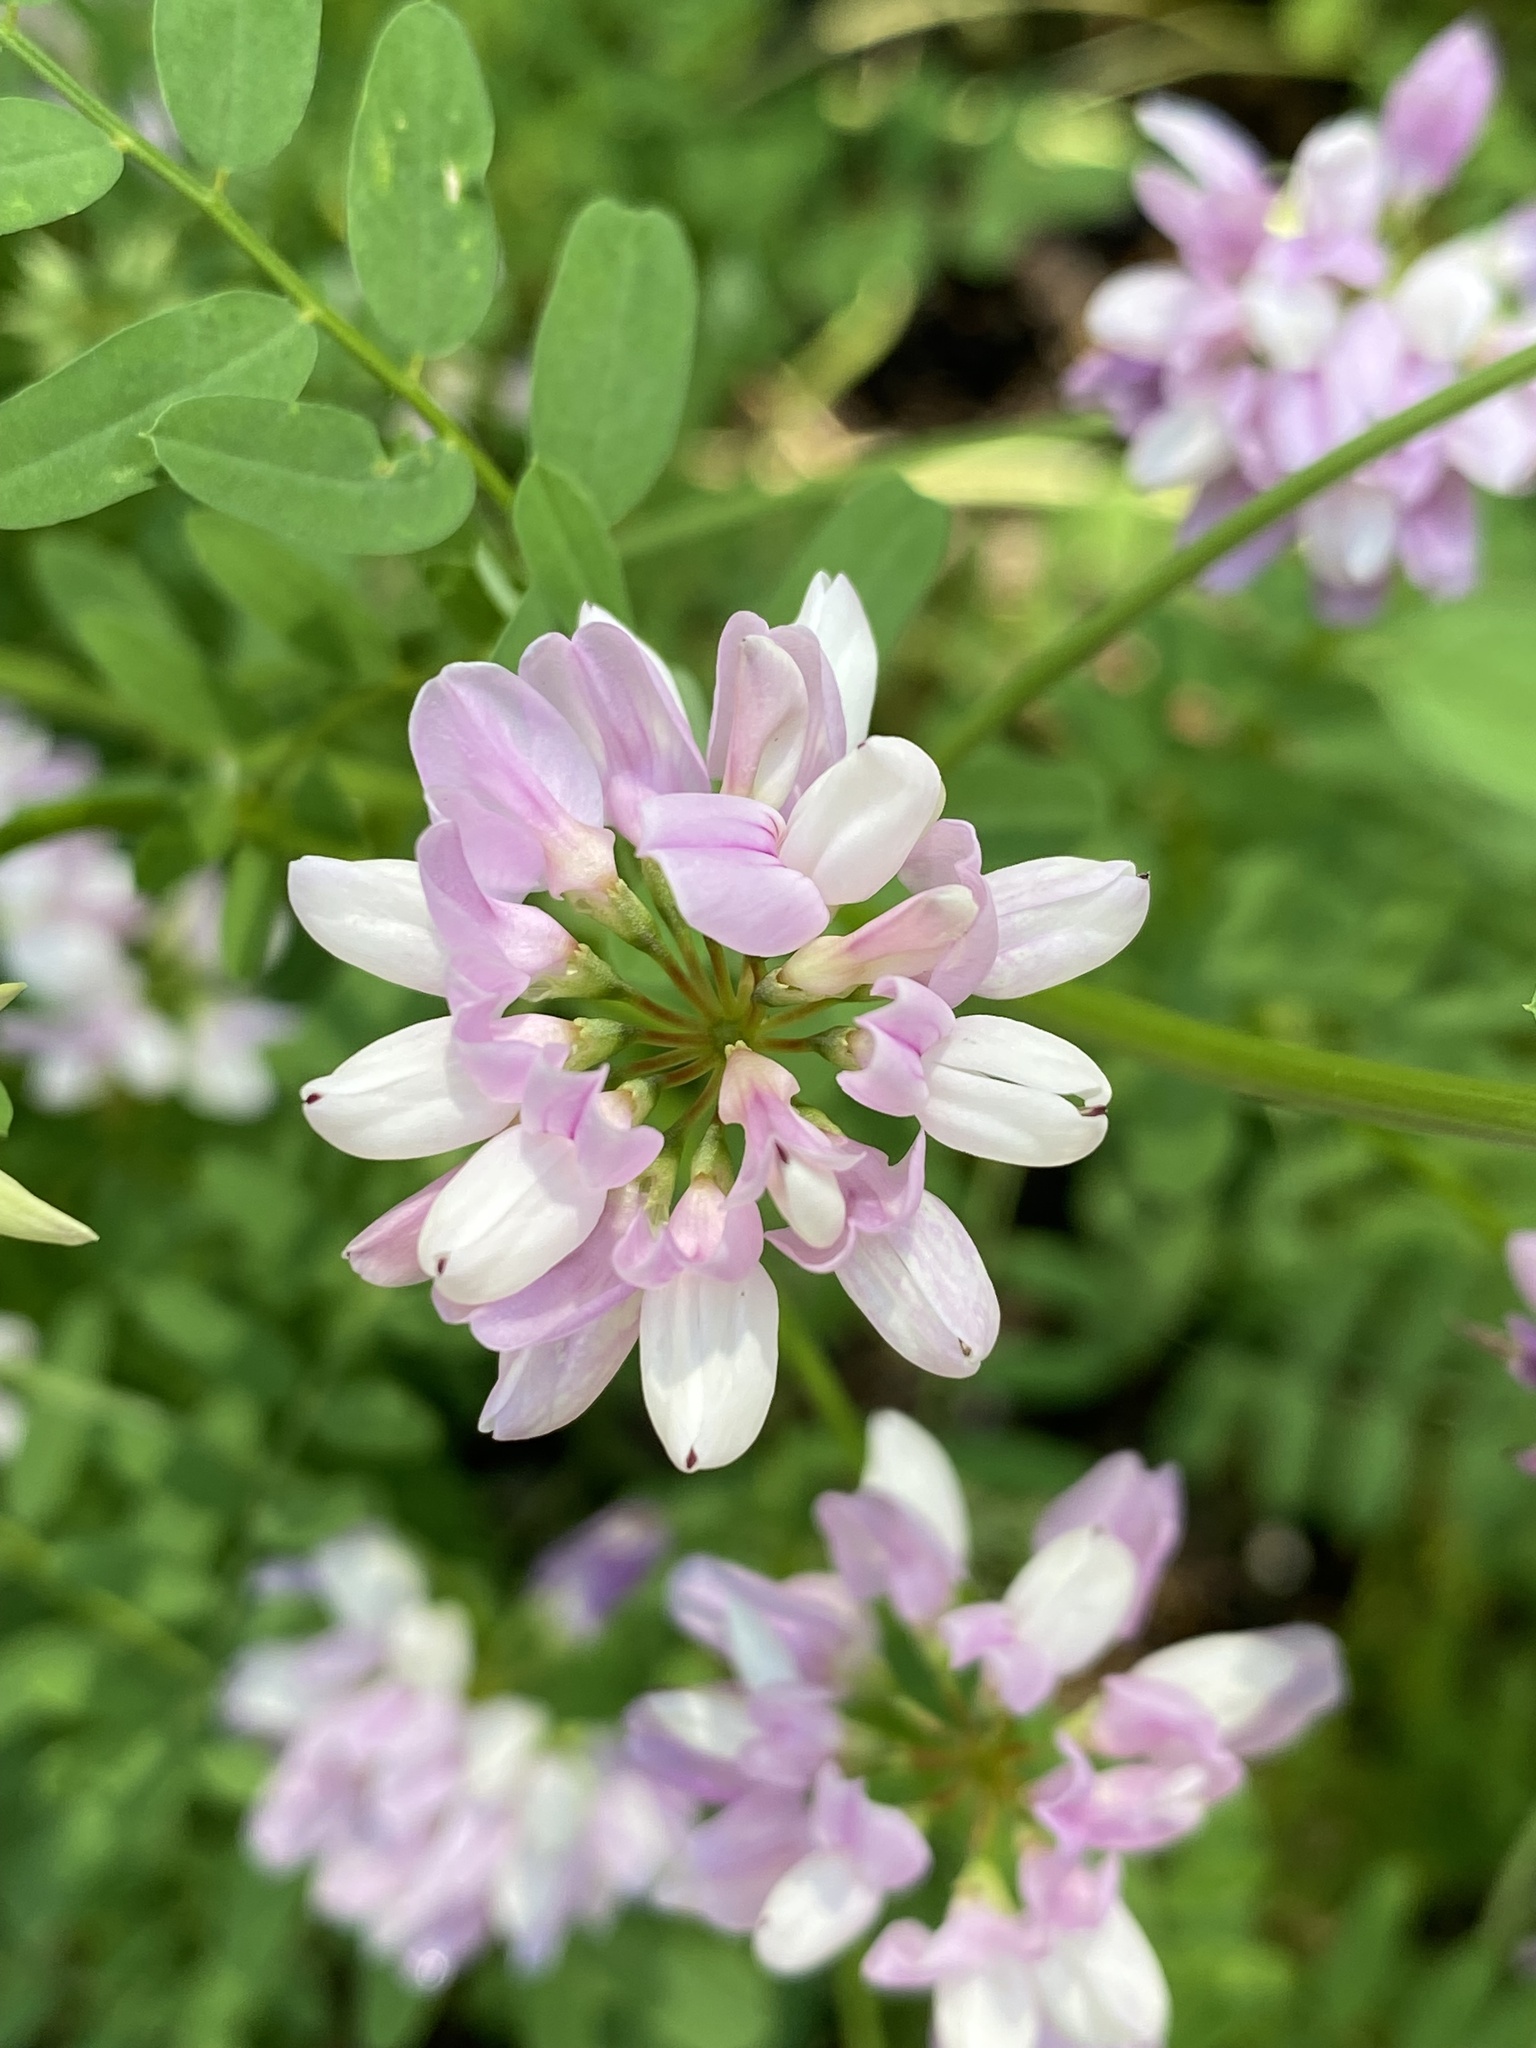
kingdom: Plantae
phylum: Tracheophyta
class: Magnoliopsida
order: Fabales
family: Fabaceae
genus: Coronilla
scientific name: Coronilla varia
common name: Crownvetch
